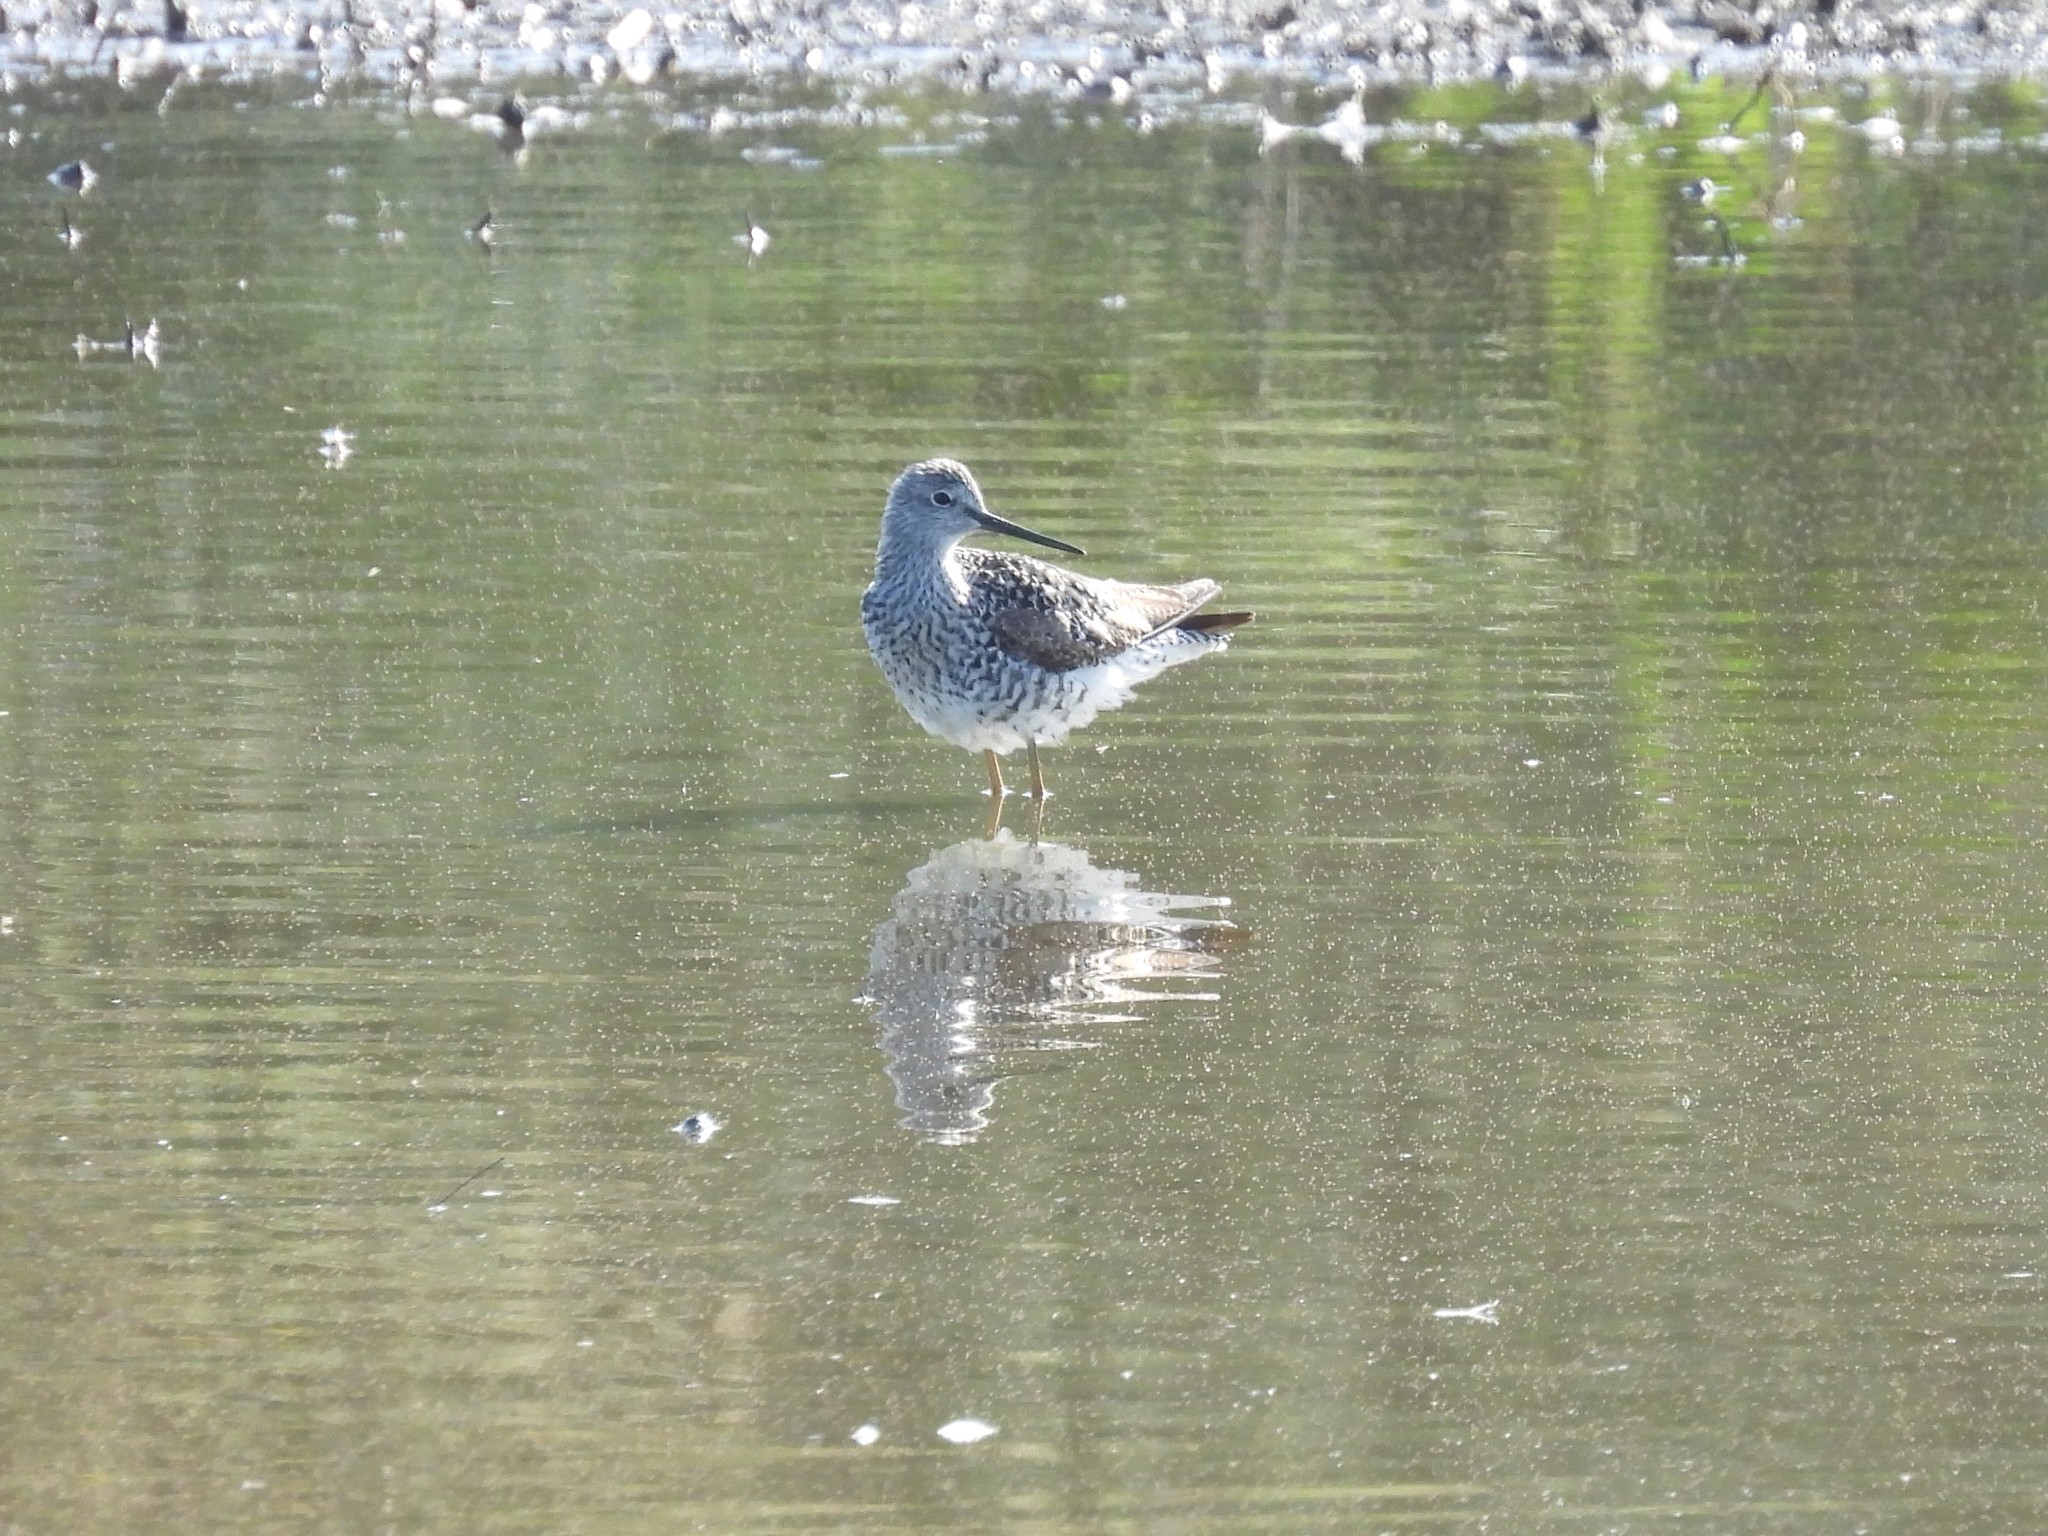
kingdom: Animalia
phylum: Chordata
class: Aves
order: Charadriiformes
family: Scolopacidae
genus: Tringa
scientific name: Tringa melanoleuca
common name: Greater yellowlegs
